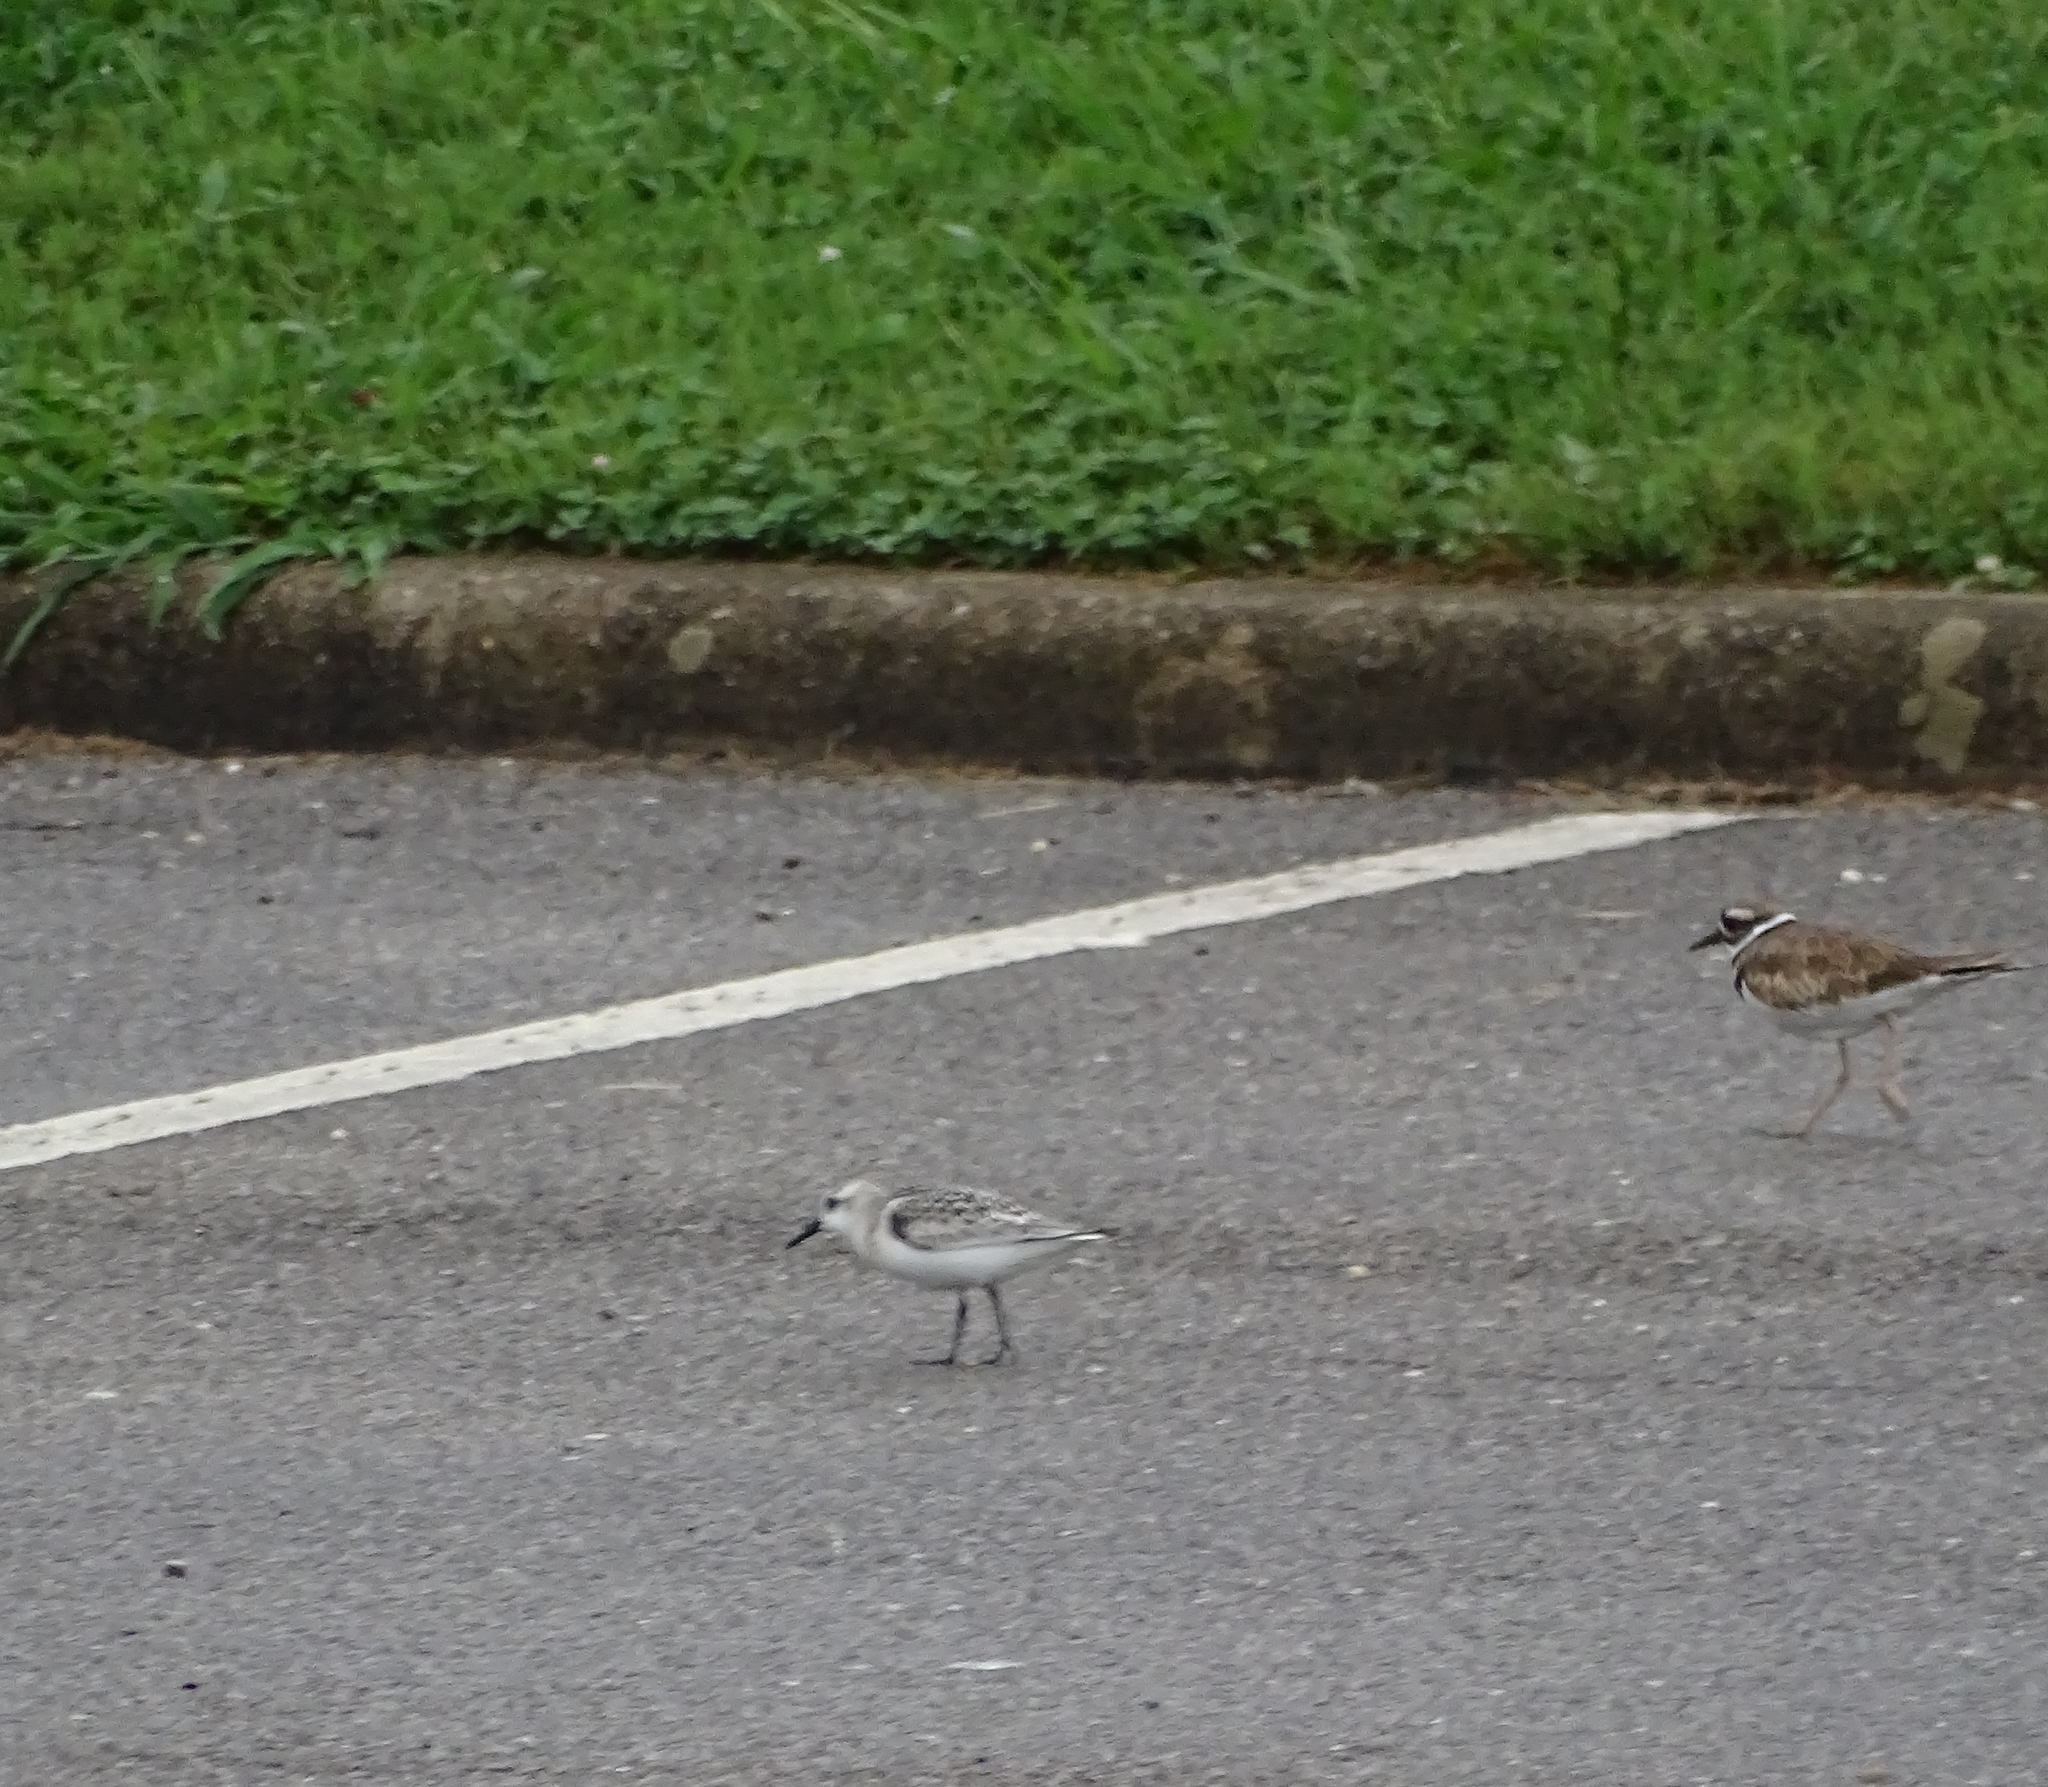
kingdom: Animalia
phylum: Chordata
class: Aves
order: Charadriiformes
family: Scolopacidae
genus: Calidris
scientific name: Calidris alba
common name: Sanderling
